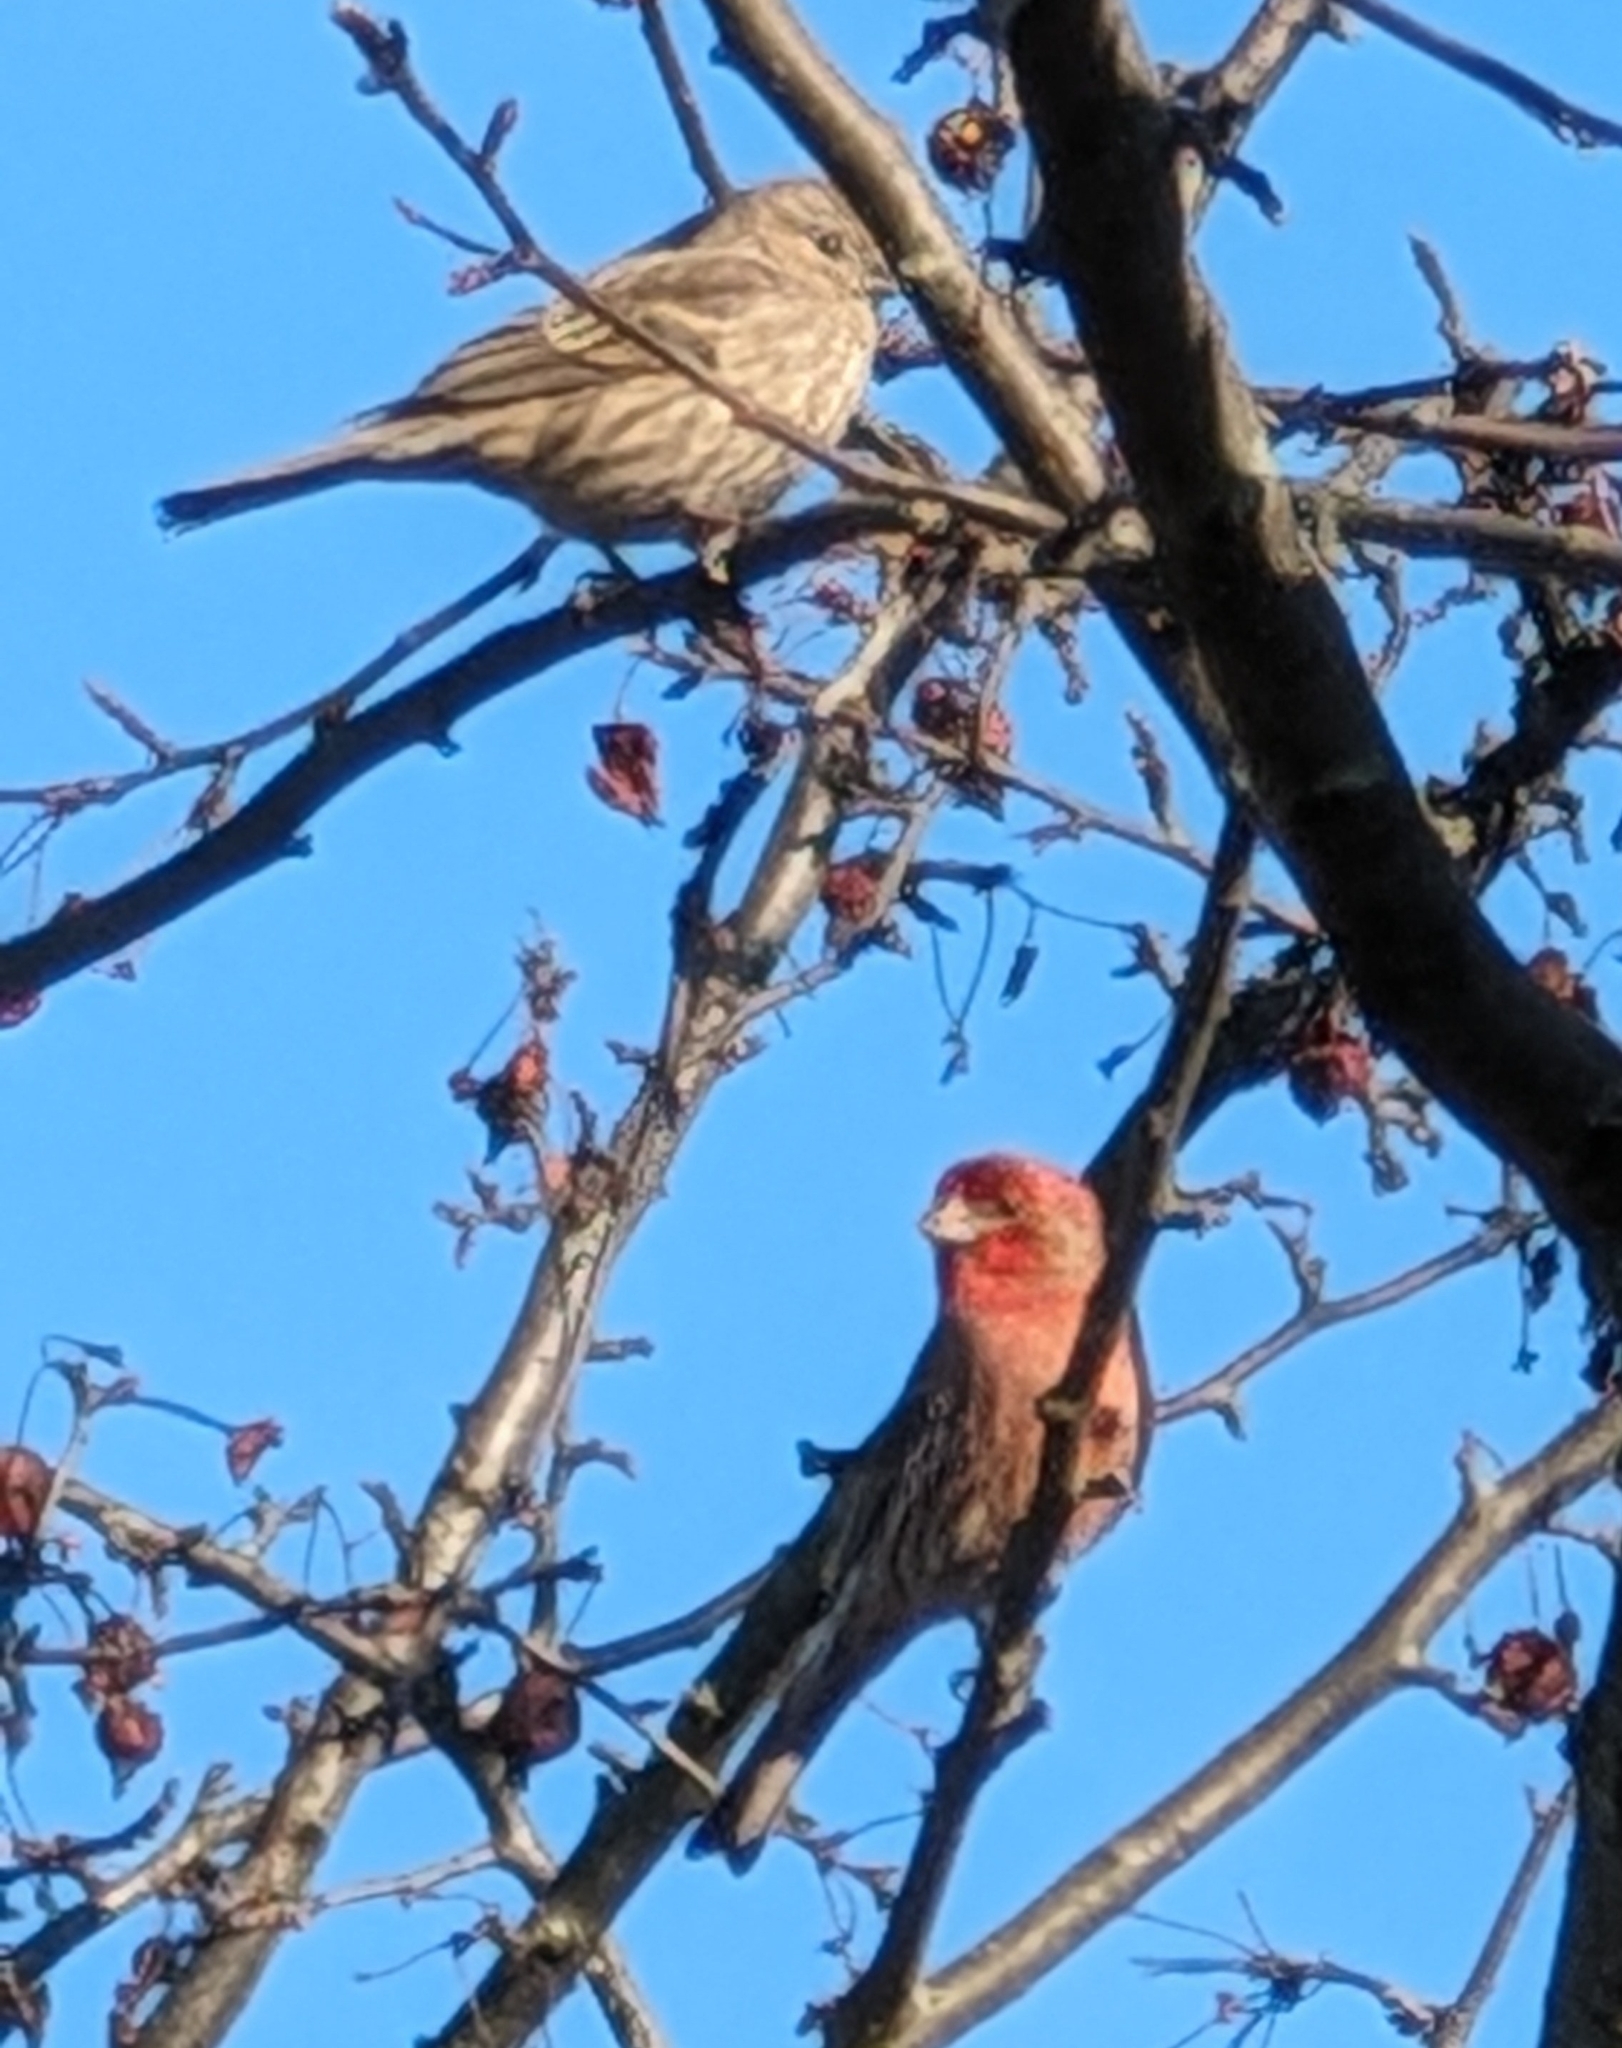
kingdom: Animalia
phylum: Chordata
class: Aves
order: Passeriformes
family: Fringillidae
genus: Haemorhous
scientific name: Haemorhous mexicanus
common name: House finch
